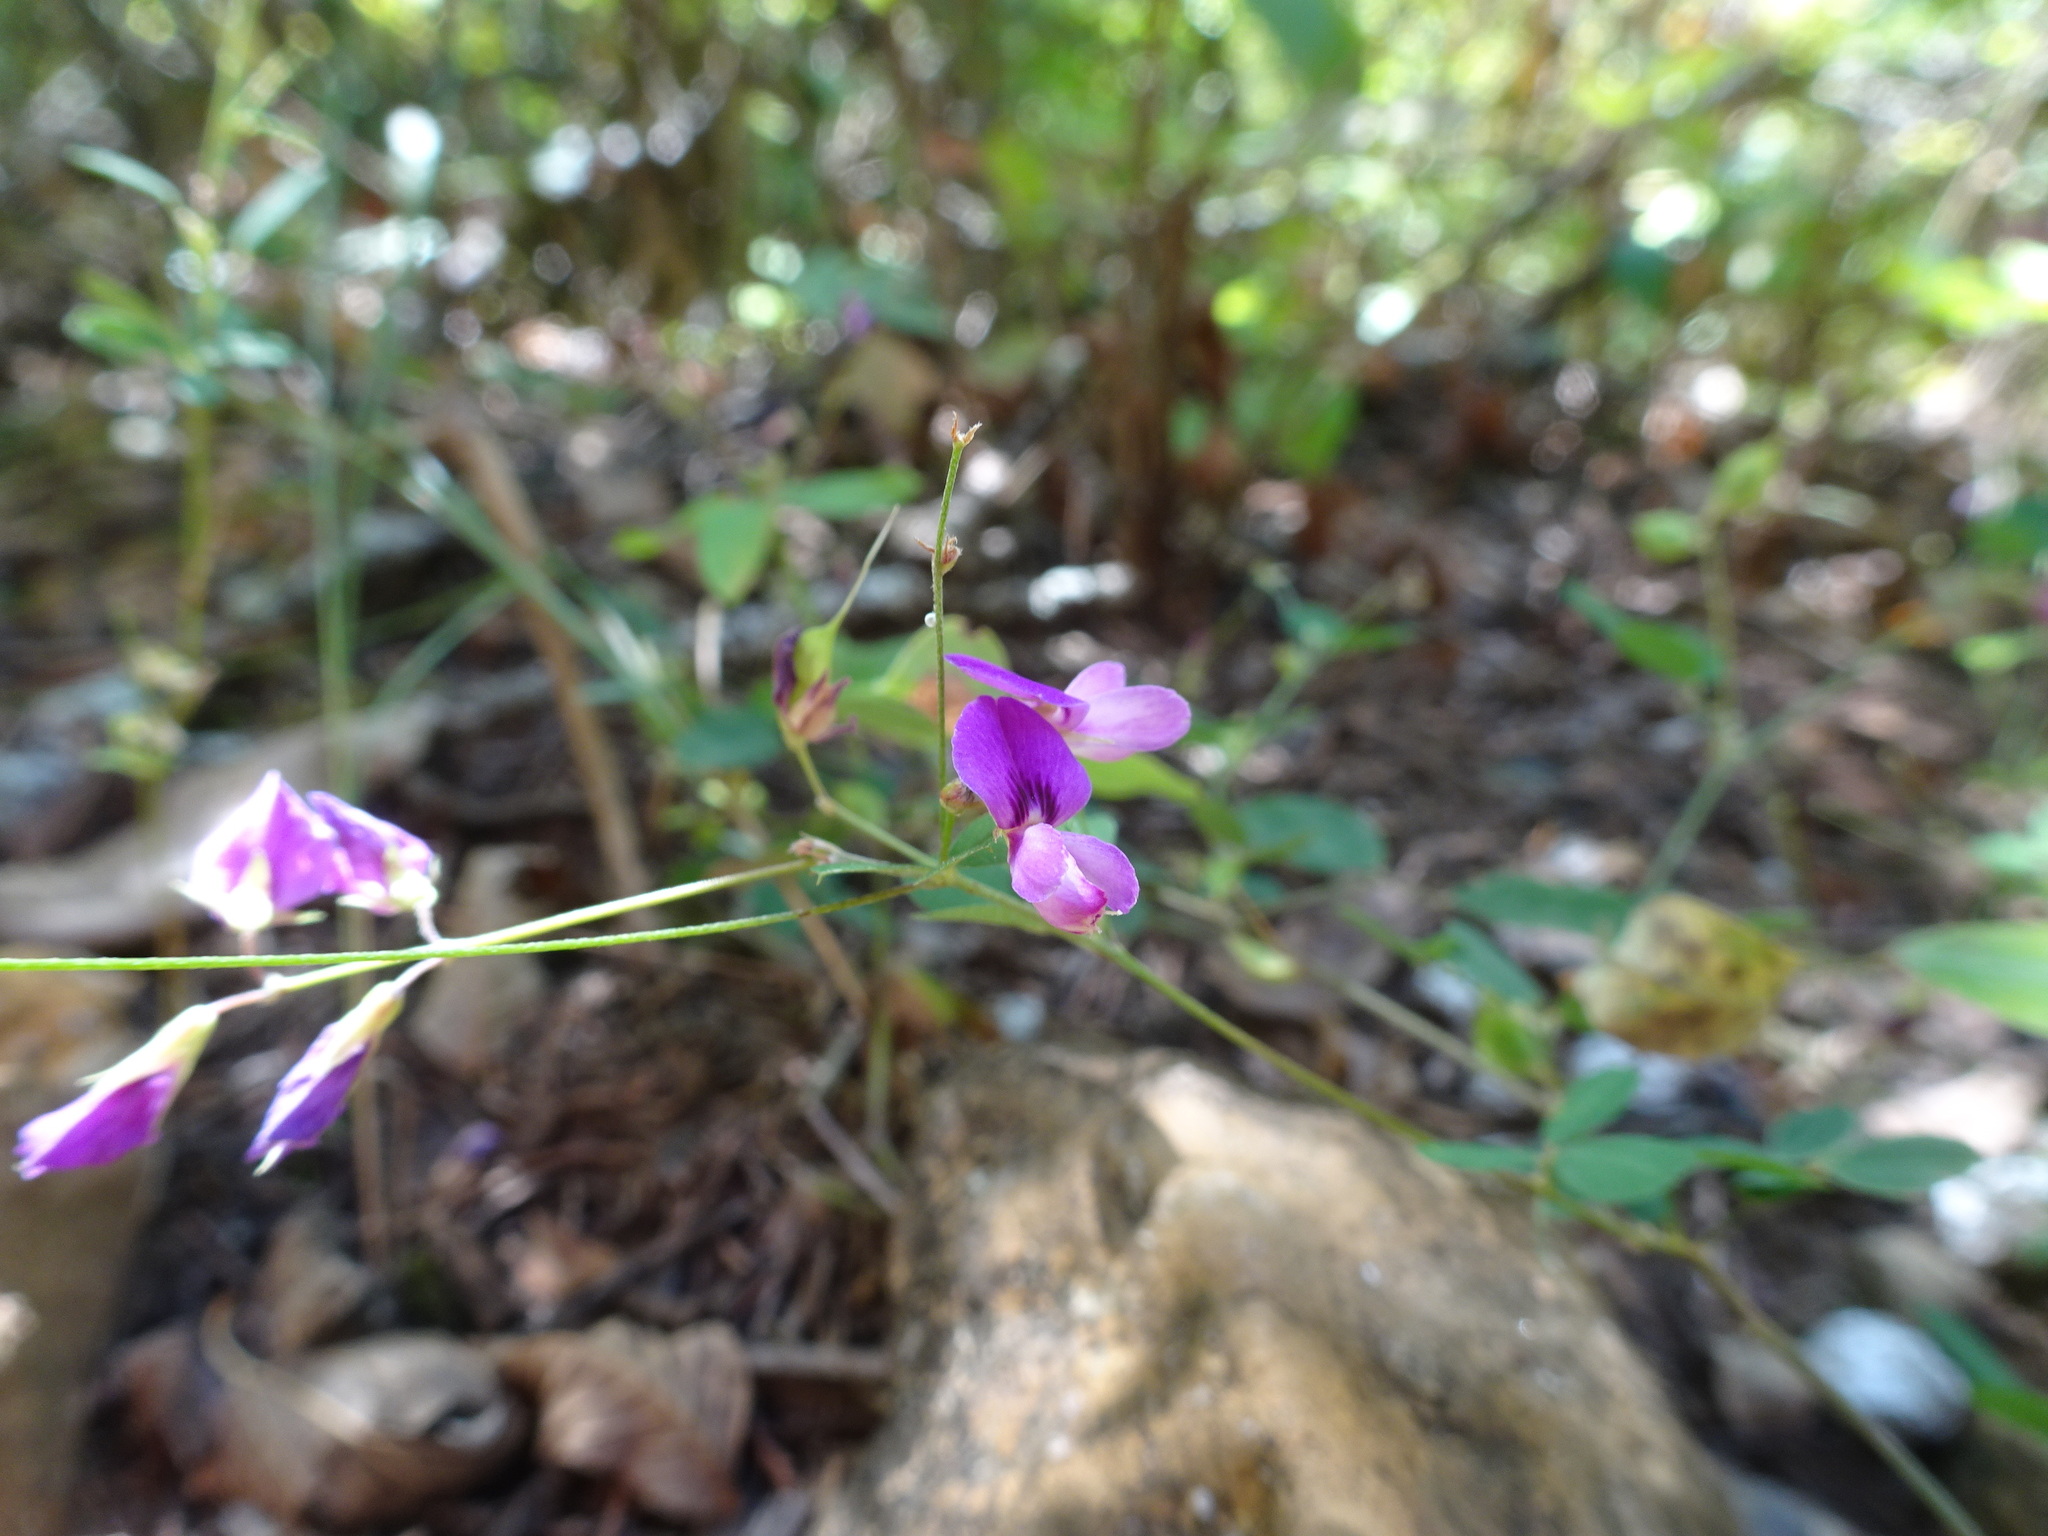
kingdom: Plantae
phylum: Tracheophyta
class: Magnoliopsida
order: Fabales
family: Fabaceae
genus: Lespedeza
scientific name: Lespedeza
